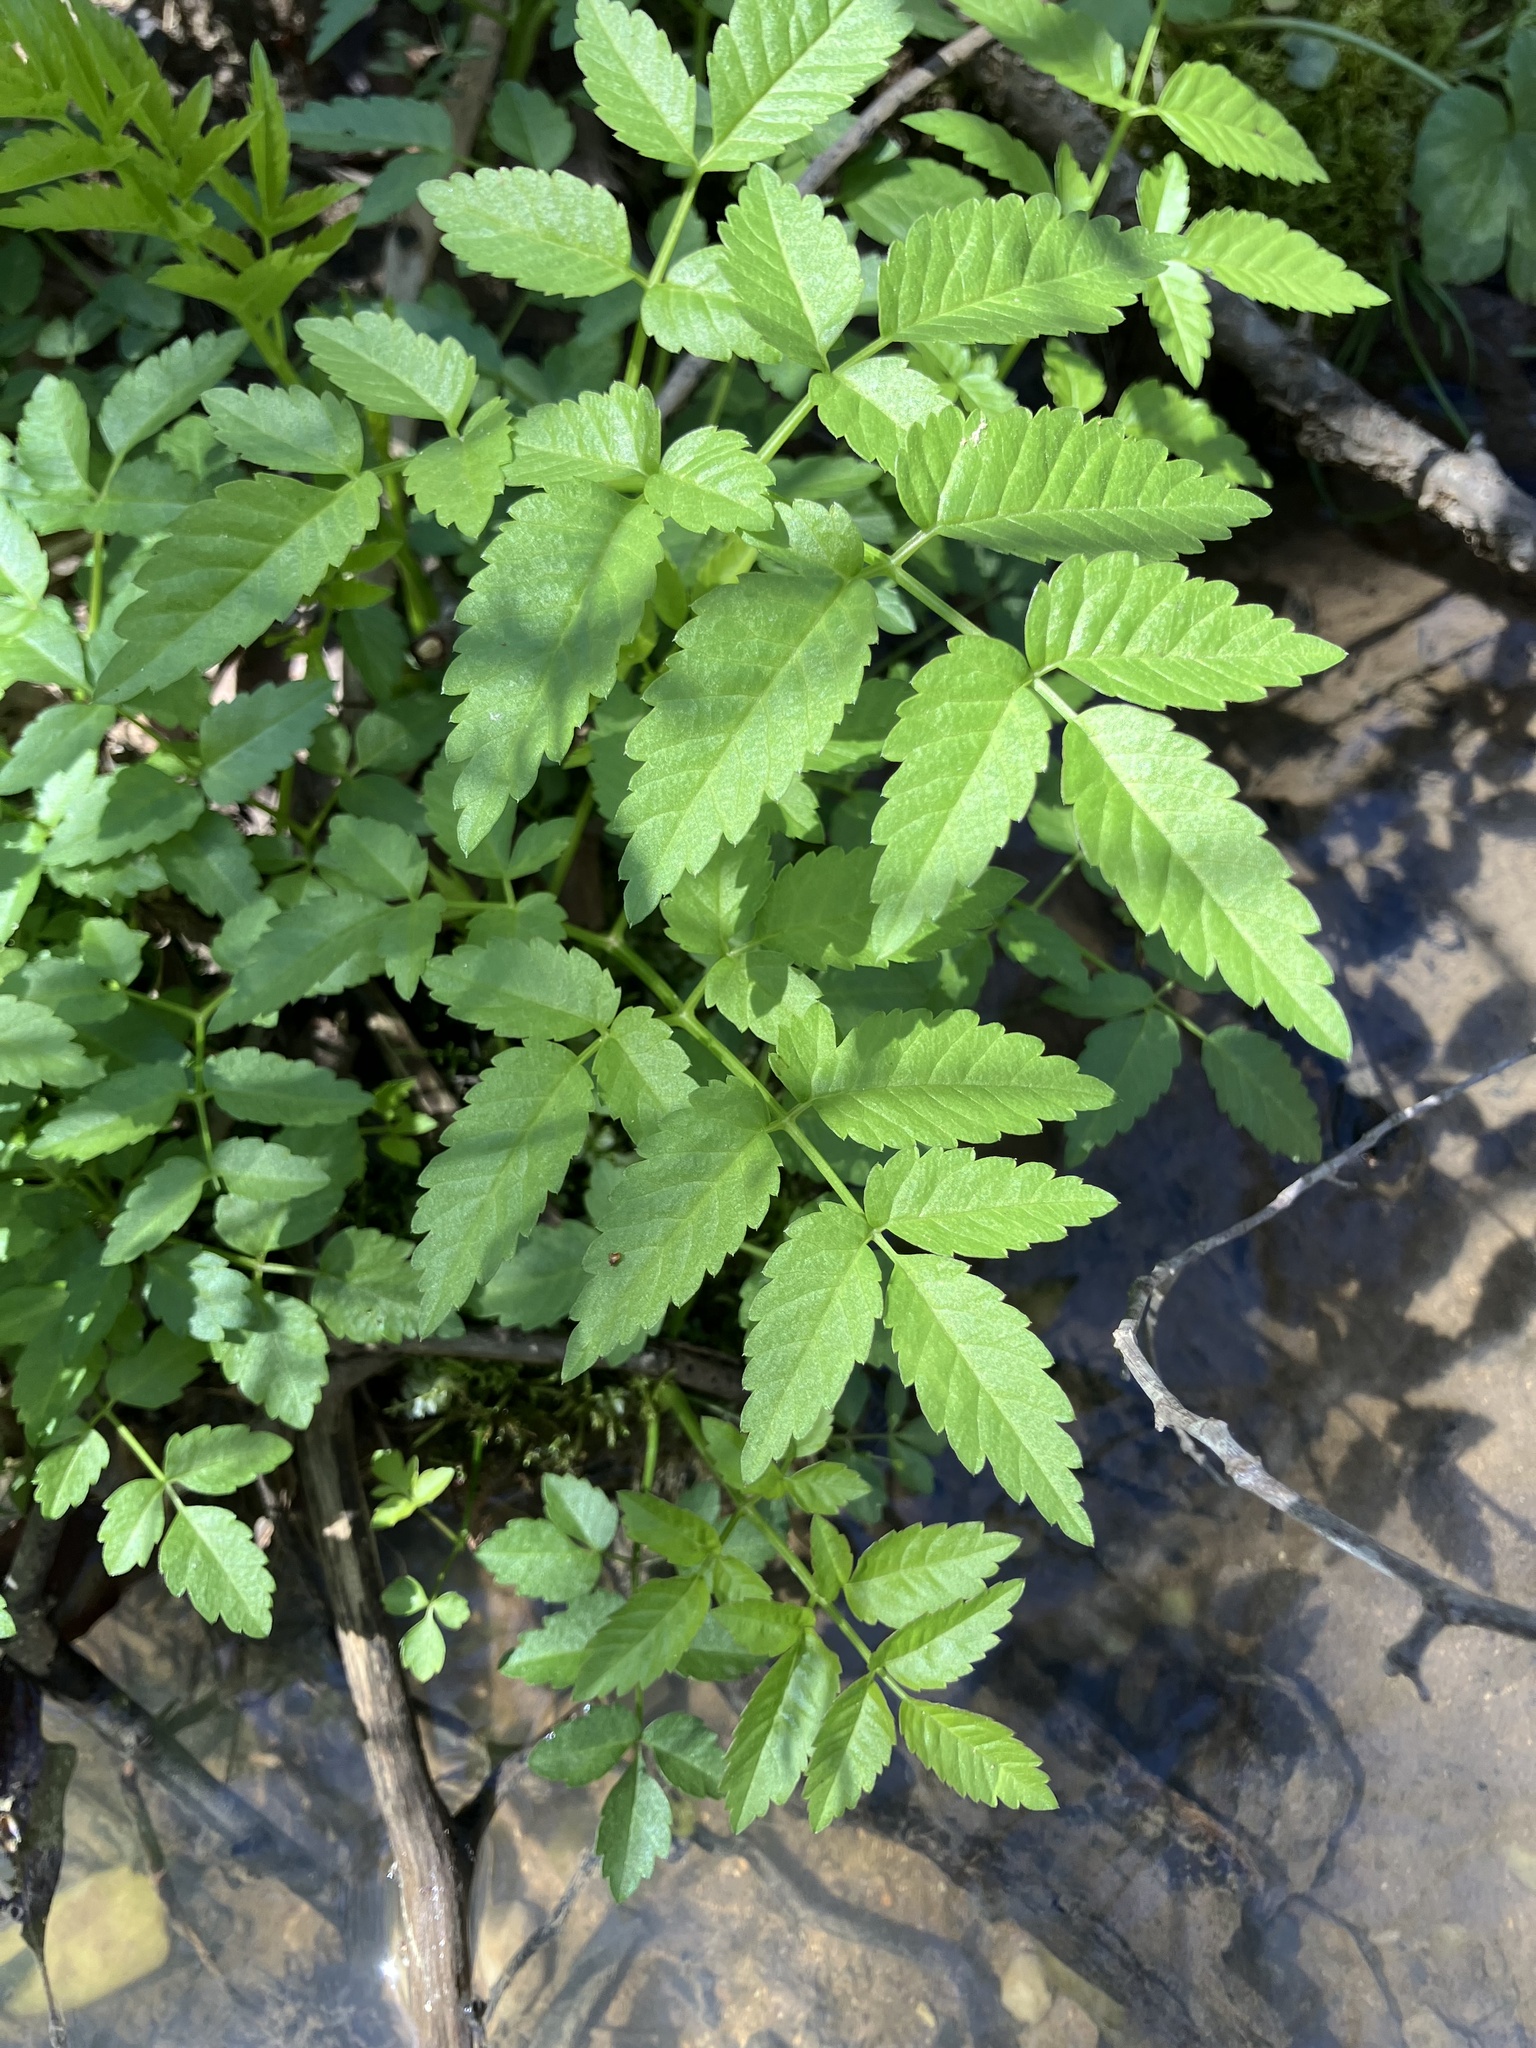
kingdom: Plantae
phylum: Tracheophyta
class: Magnoliopsida
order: Apiales
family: Apiaceae
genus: Cicuta
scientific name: Cicuta maculata
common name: Spotted cowbane
